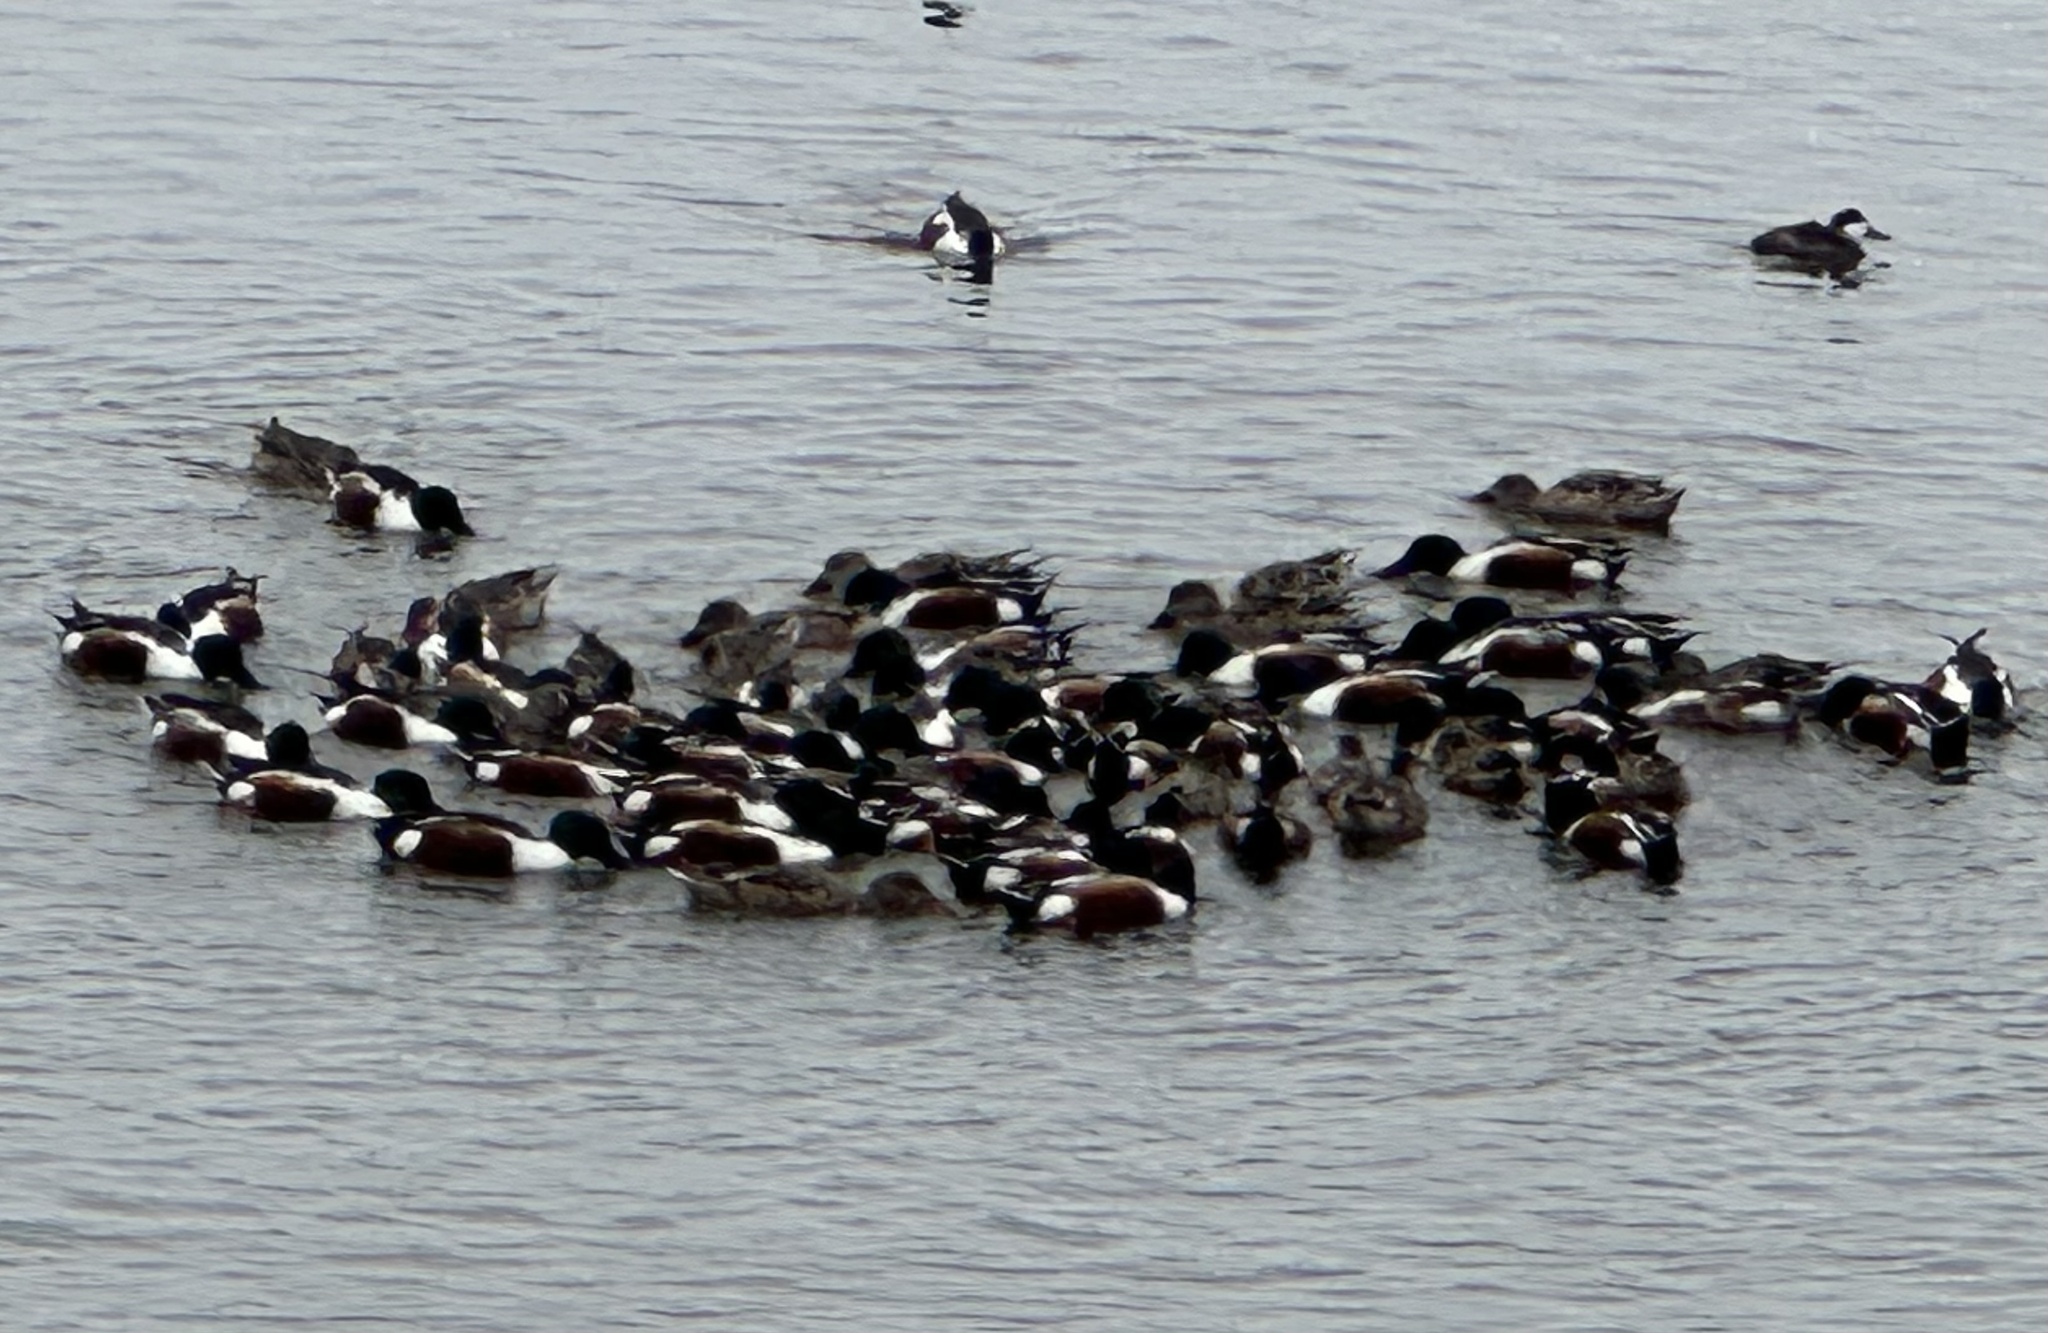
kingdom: Animalia
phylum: Chordata
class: Aves
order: Anseriformes
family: Anatidae
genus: Spatula
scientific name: Spatula clypeata
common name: Northern shoveler
